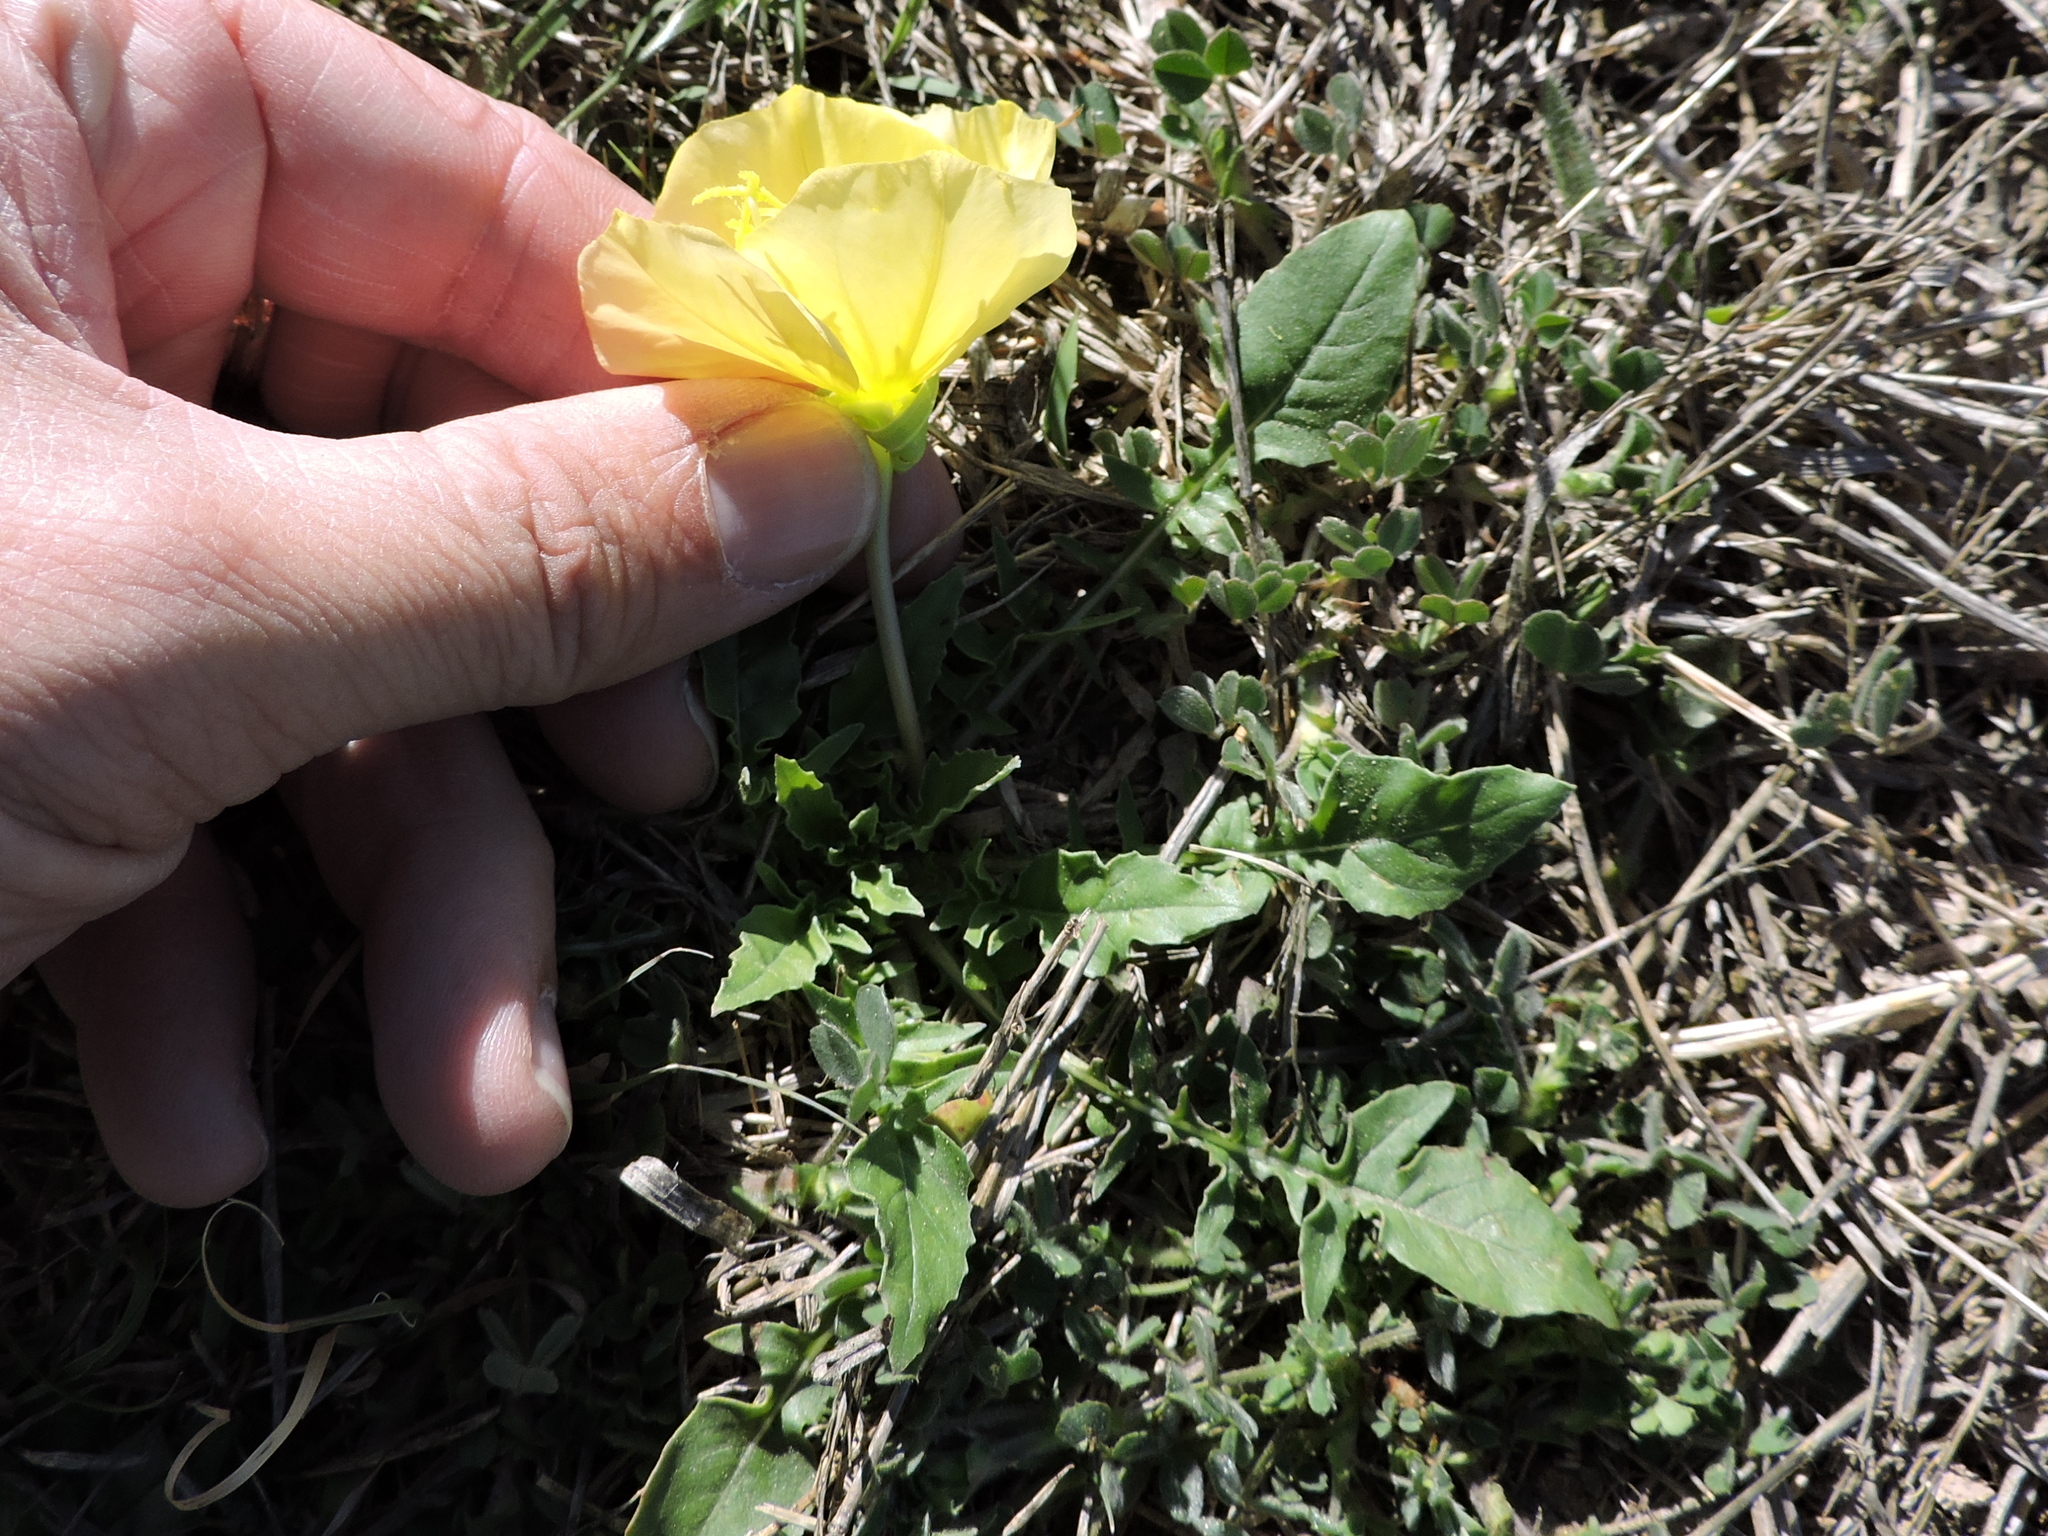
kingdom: Plantae
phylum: Tracheophyta
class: Magnoliopsida
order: Myrtales
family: Onagraceae
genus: Oenothera
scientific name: Oenothera triloba
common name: Sessile evening-primrose
